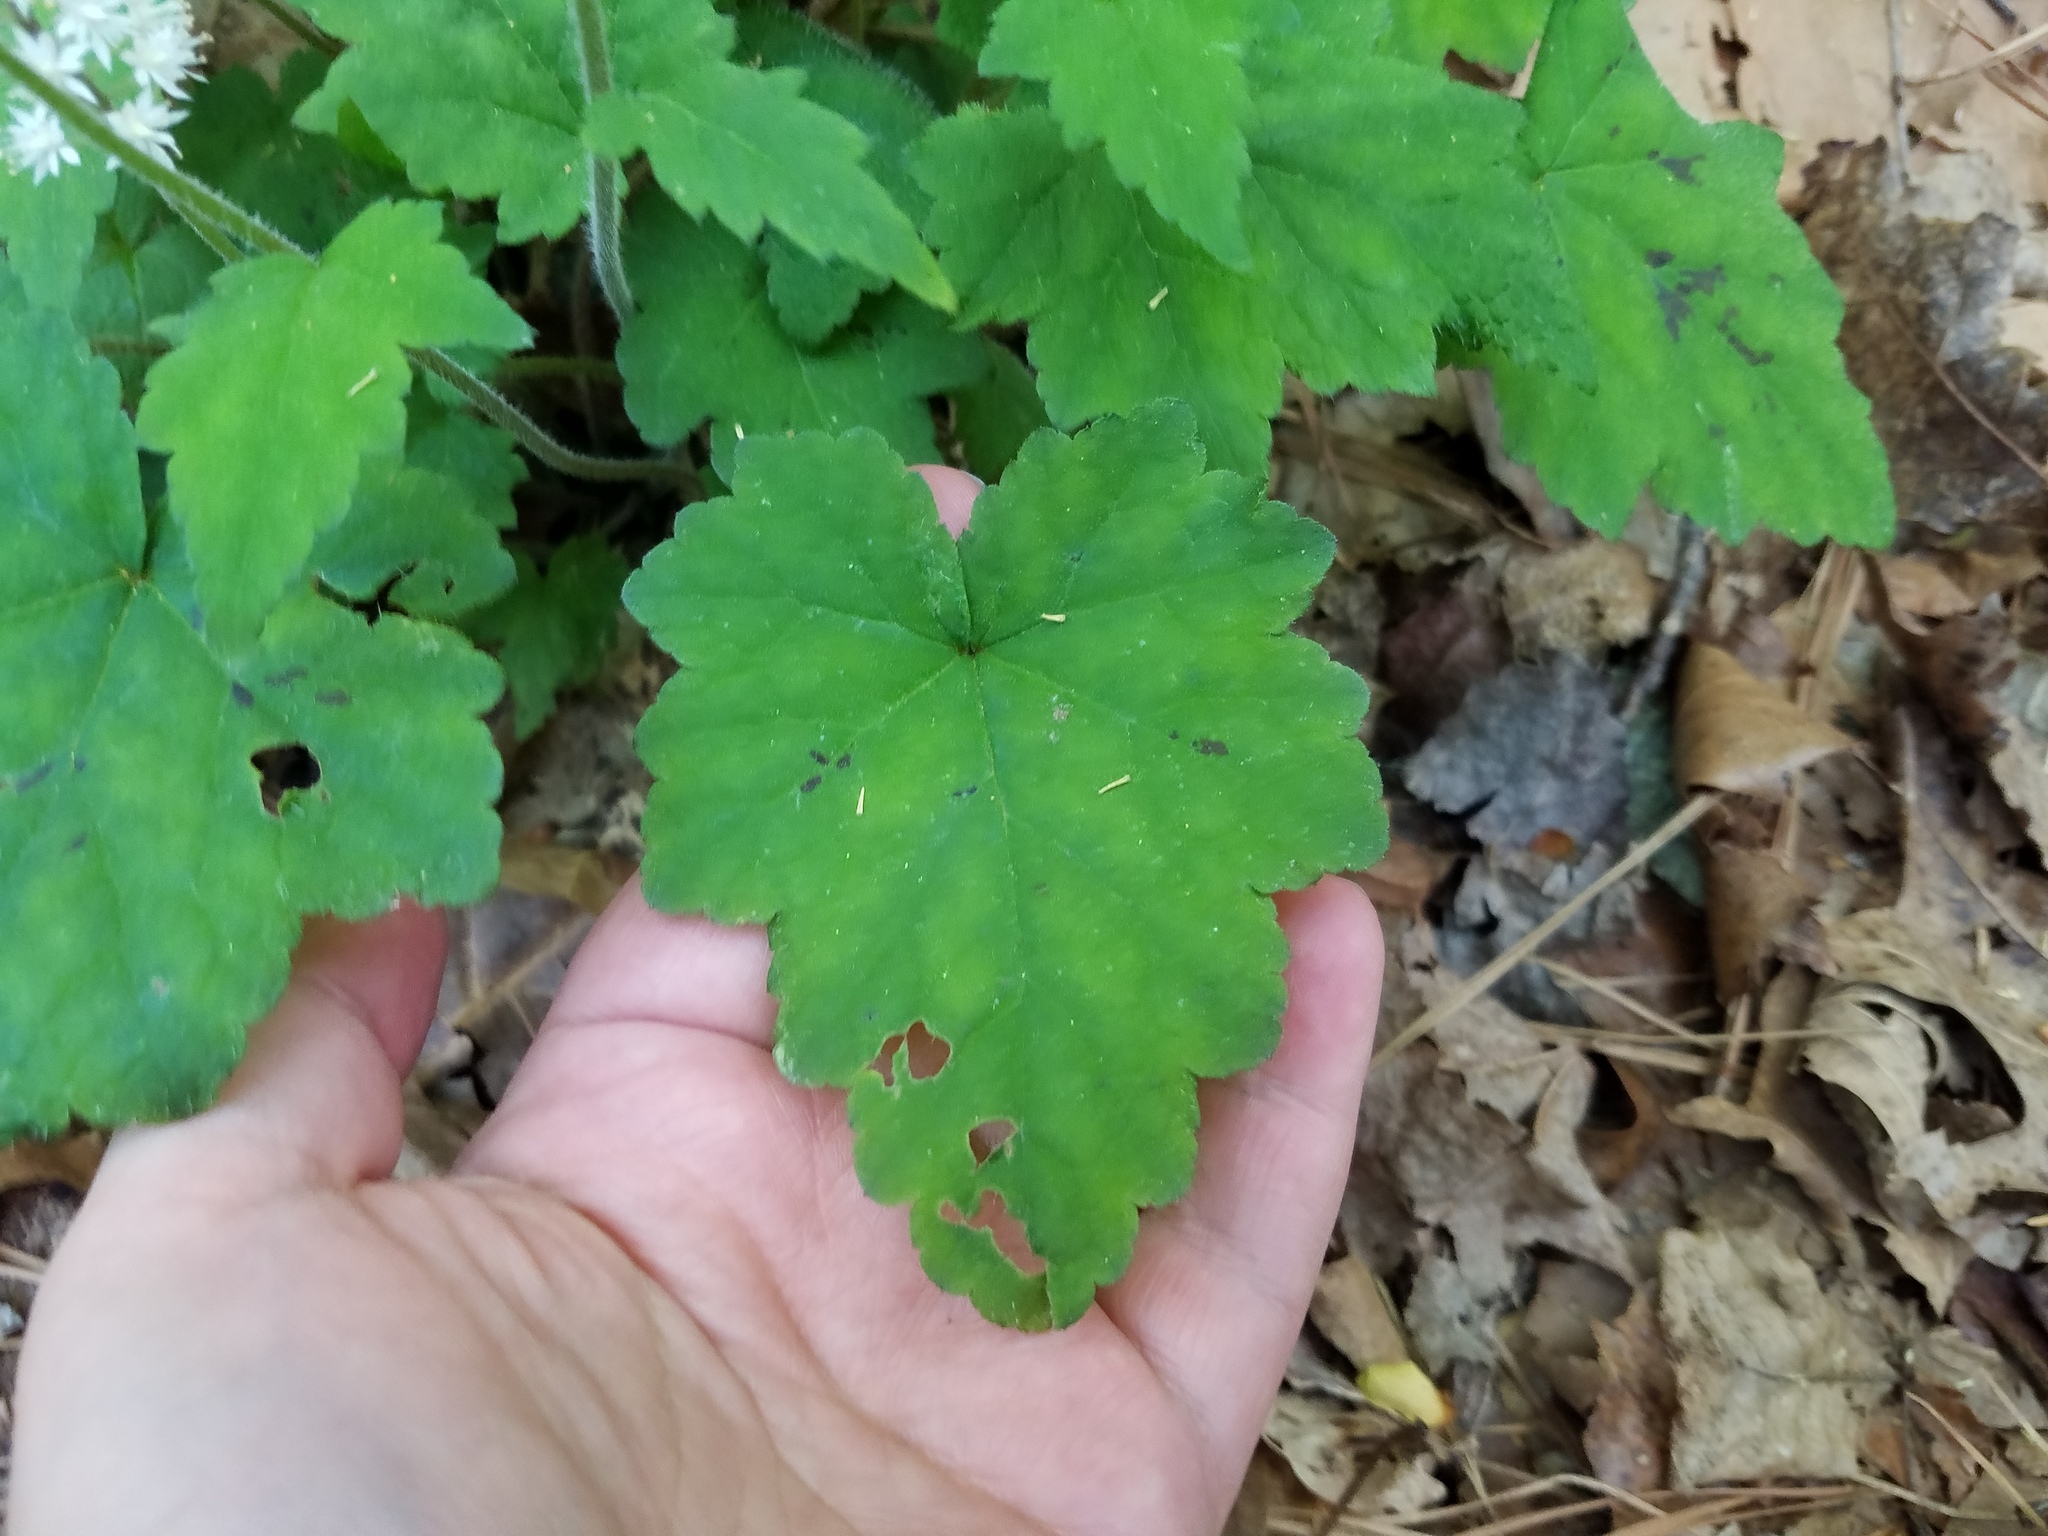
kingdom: Plantae
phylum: Tracheophyta
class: Magnoliopsida
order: Saxifragales
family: Saxifragaceae
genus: Tiarella
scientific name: Tiarella nautila
